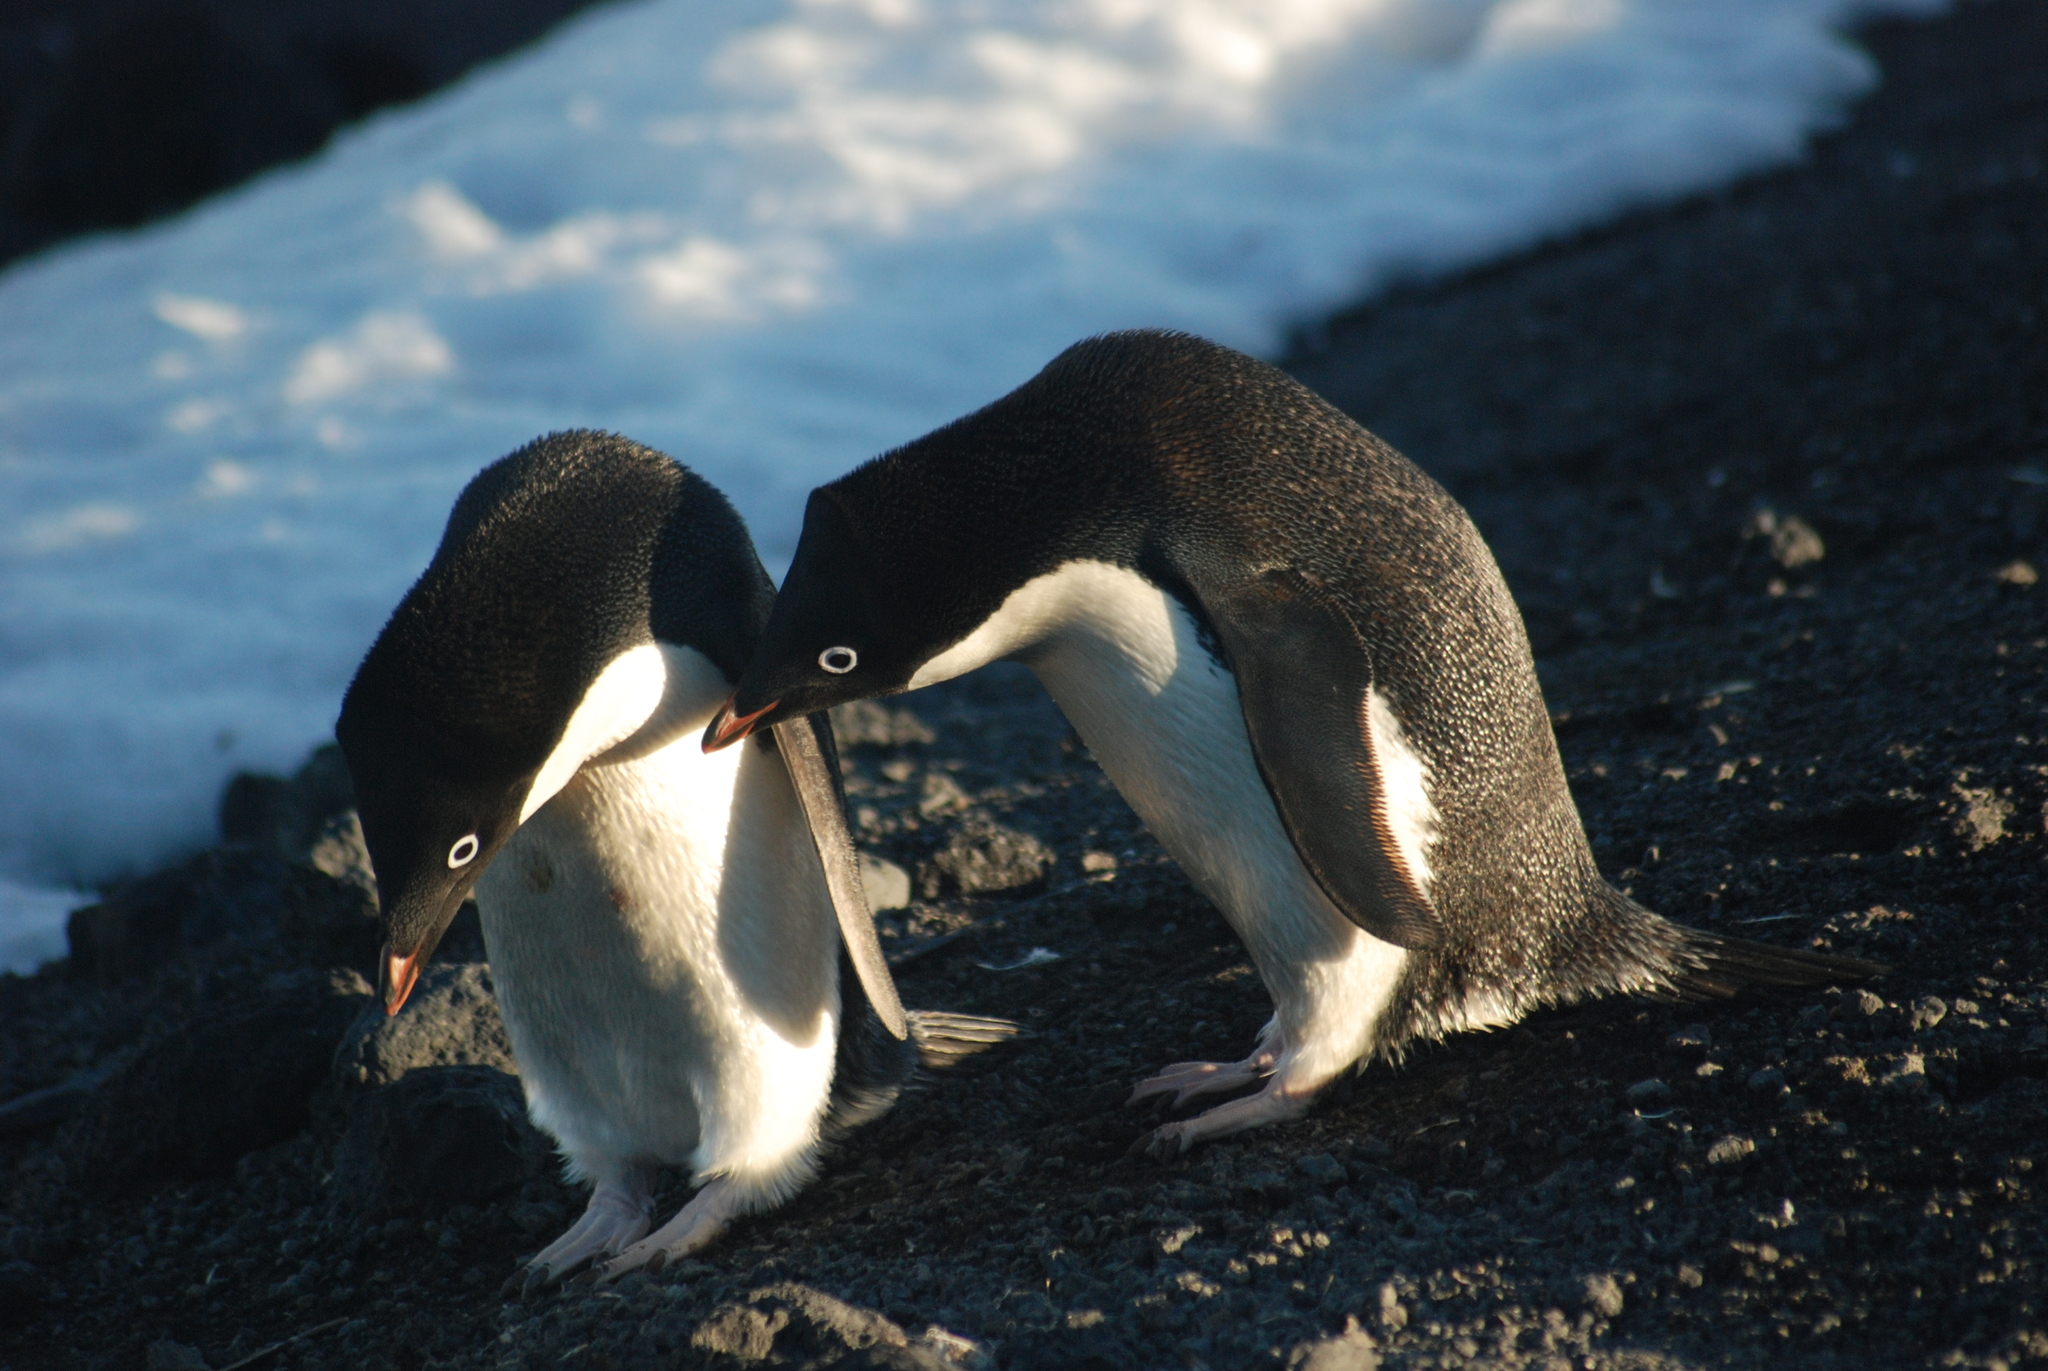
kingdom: Animalia
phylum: Chordata
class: Aves
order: Sphenisciformes
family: Spheniscidae
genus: Pygoscelis
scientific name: Pygoscelis adeliae
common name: Adelie penguin
